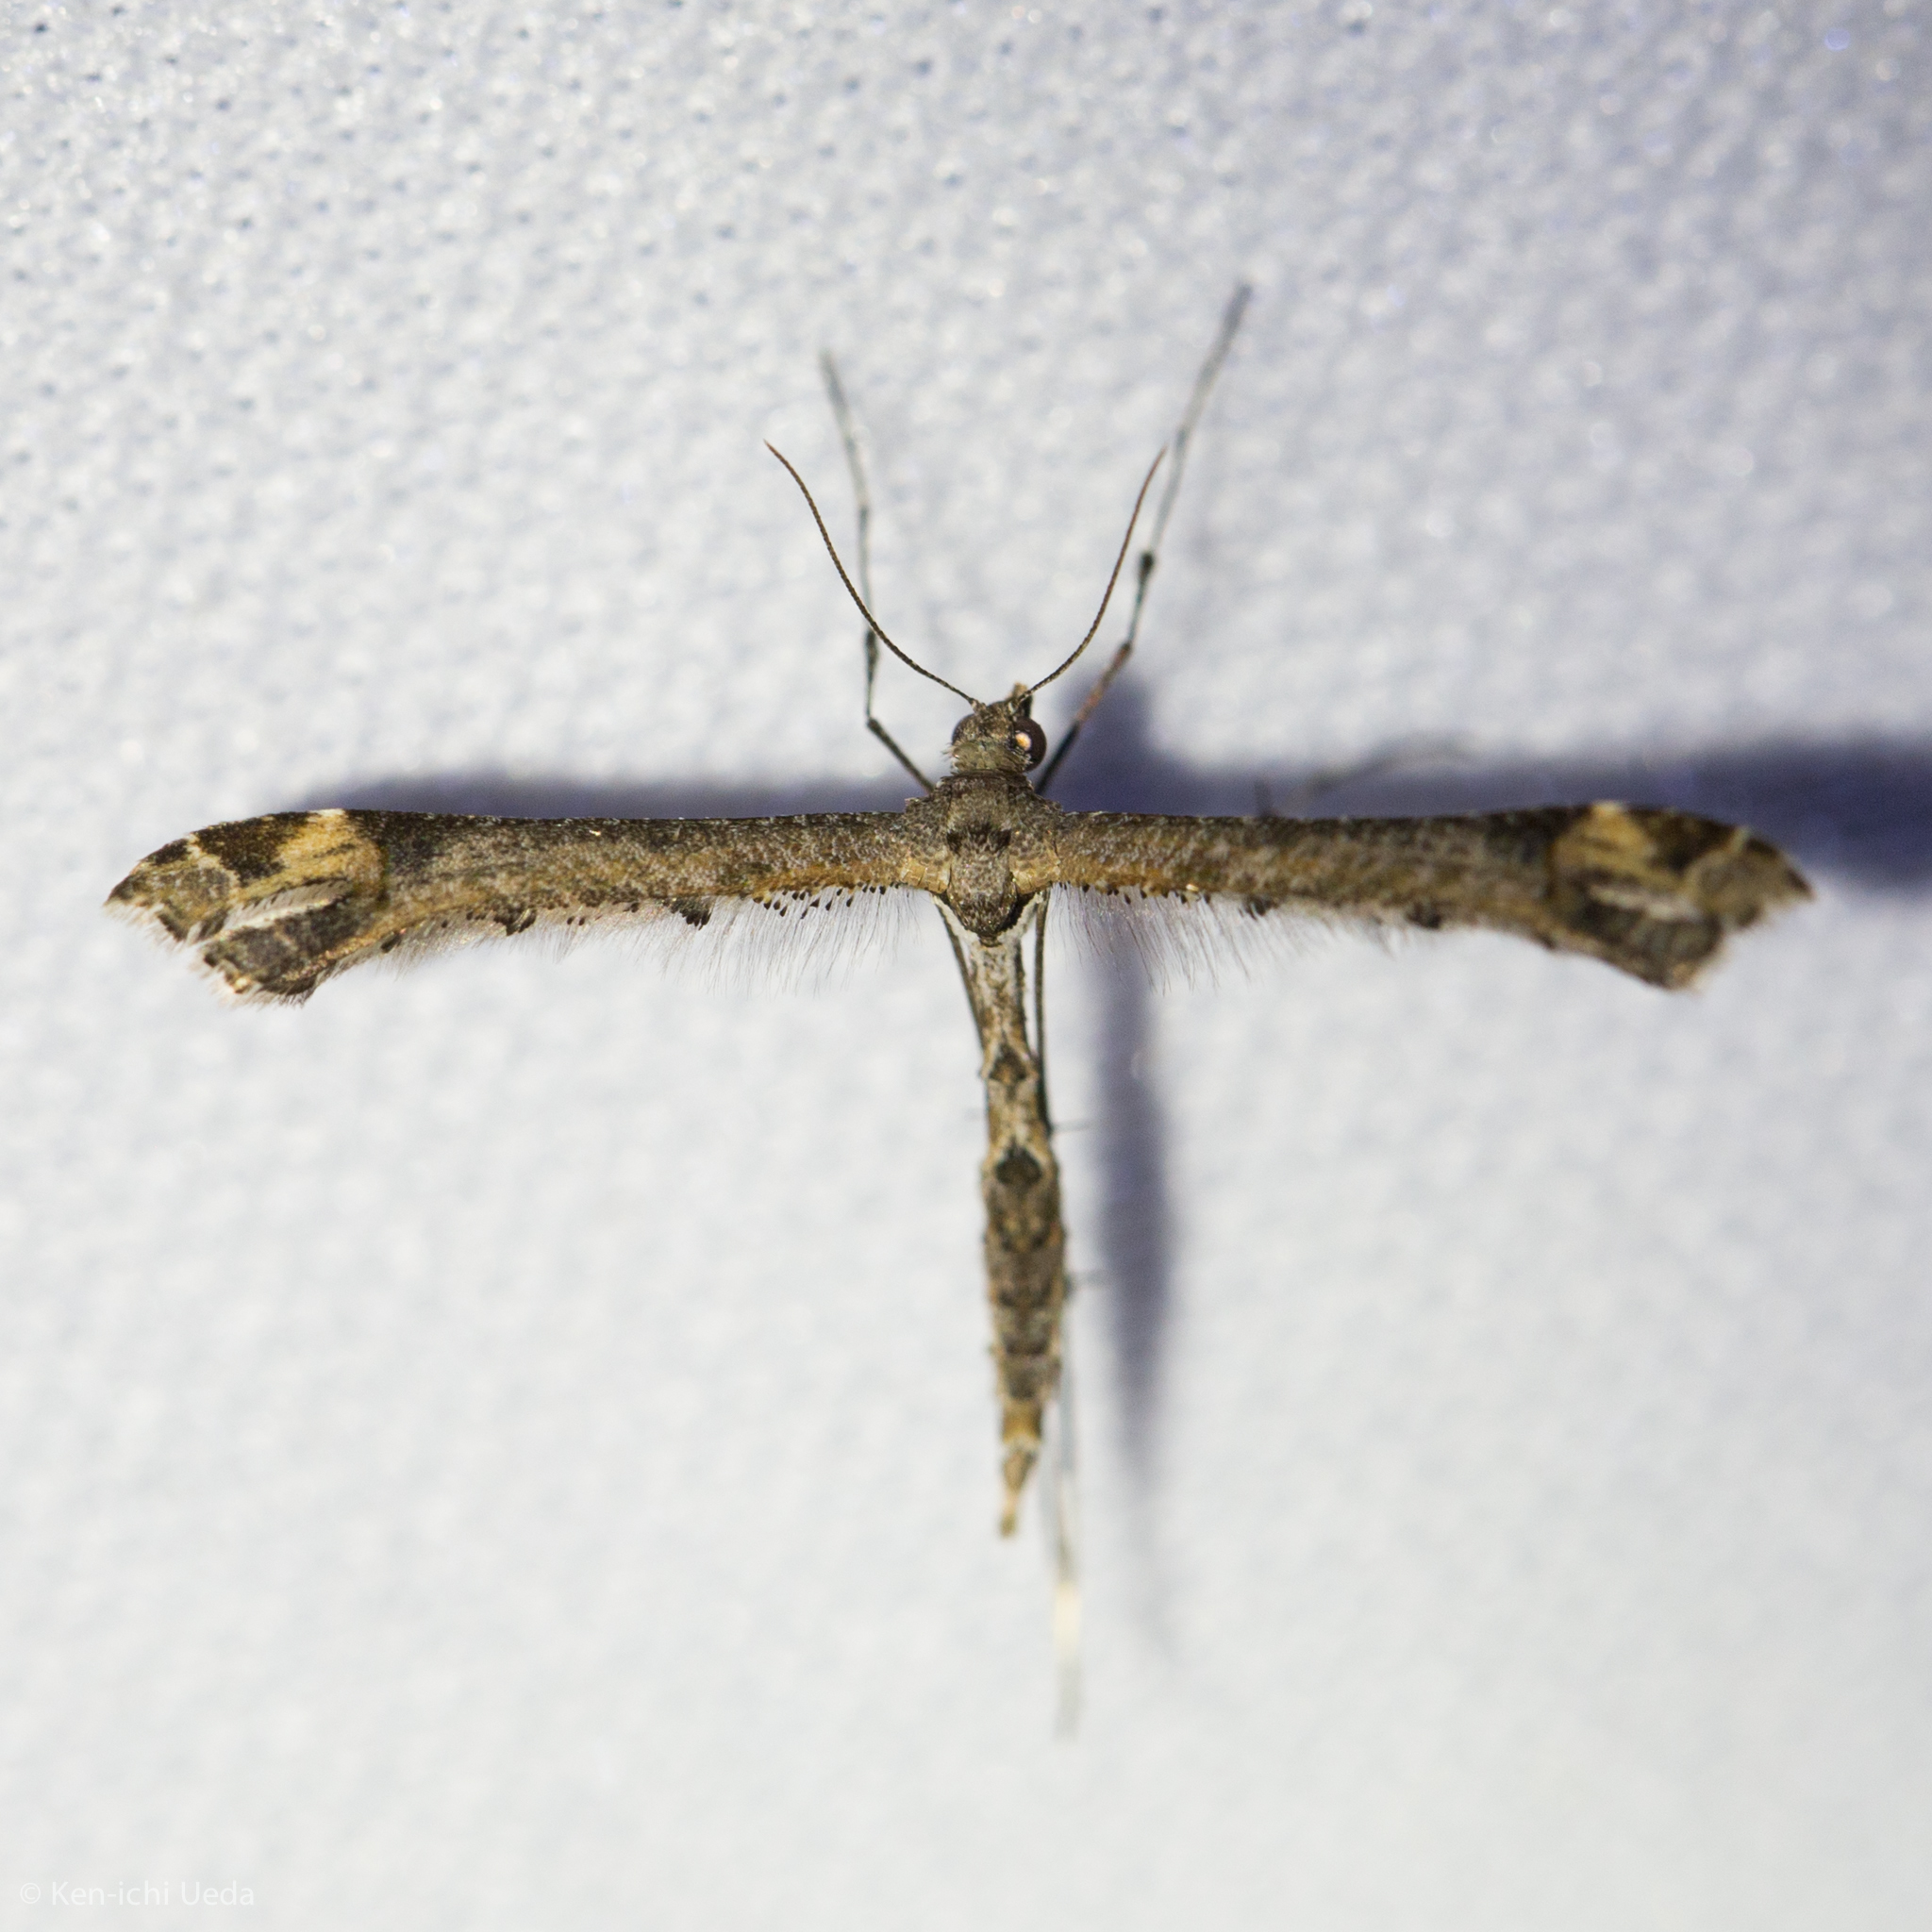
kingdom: Animalia
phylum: Arthropoda
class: Insecta
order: Lepidoptera
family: Pterophoridae
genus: Anstenoptilia
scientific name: Anstenoptilia marmarodactyla
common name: Moth
